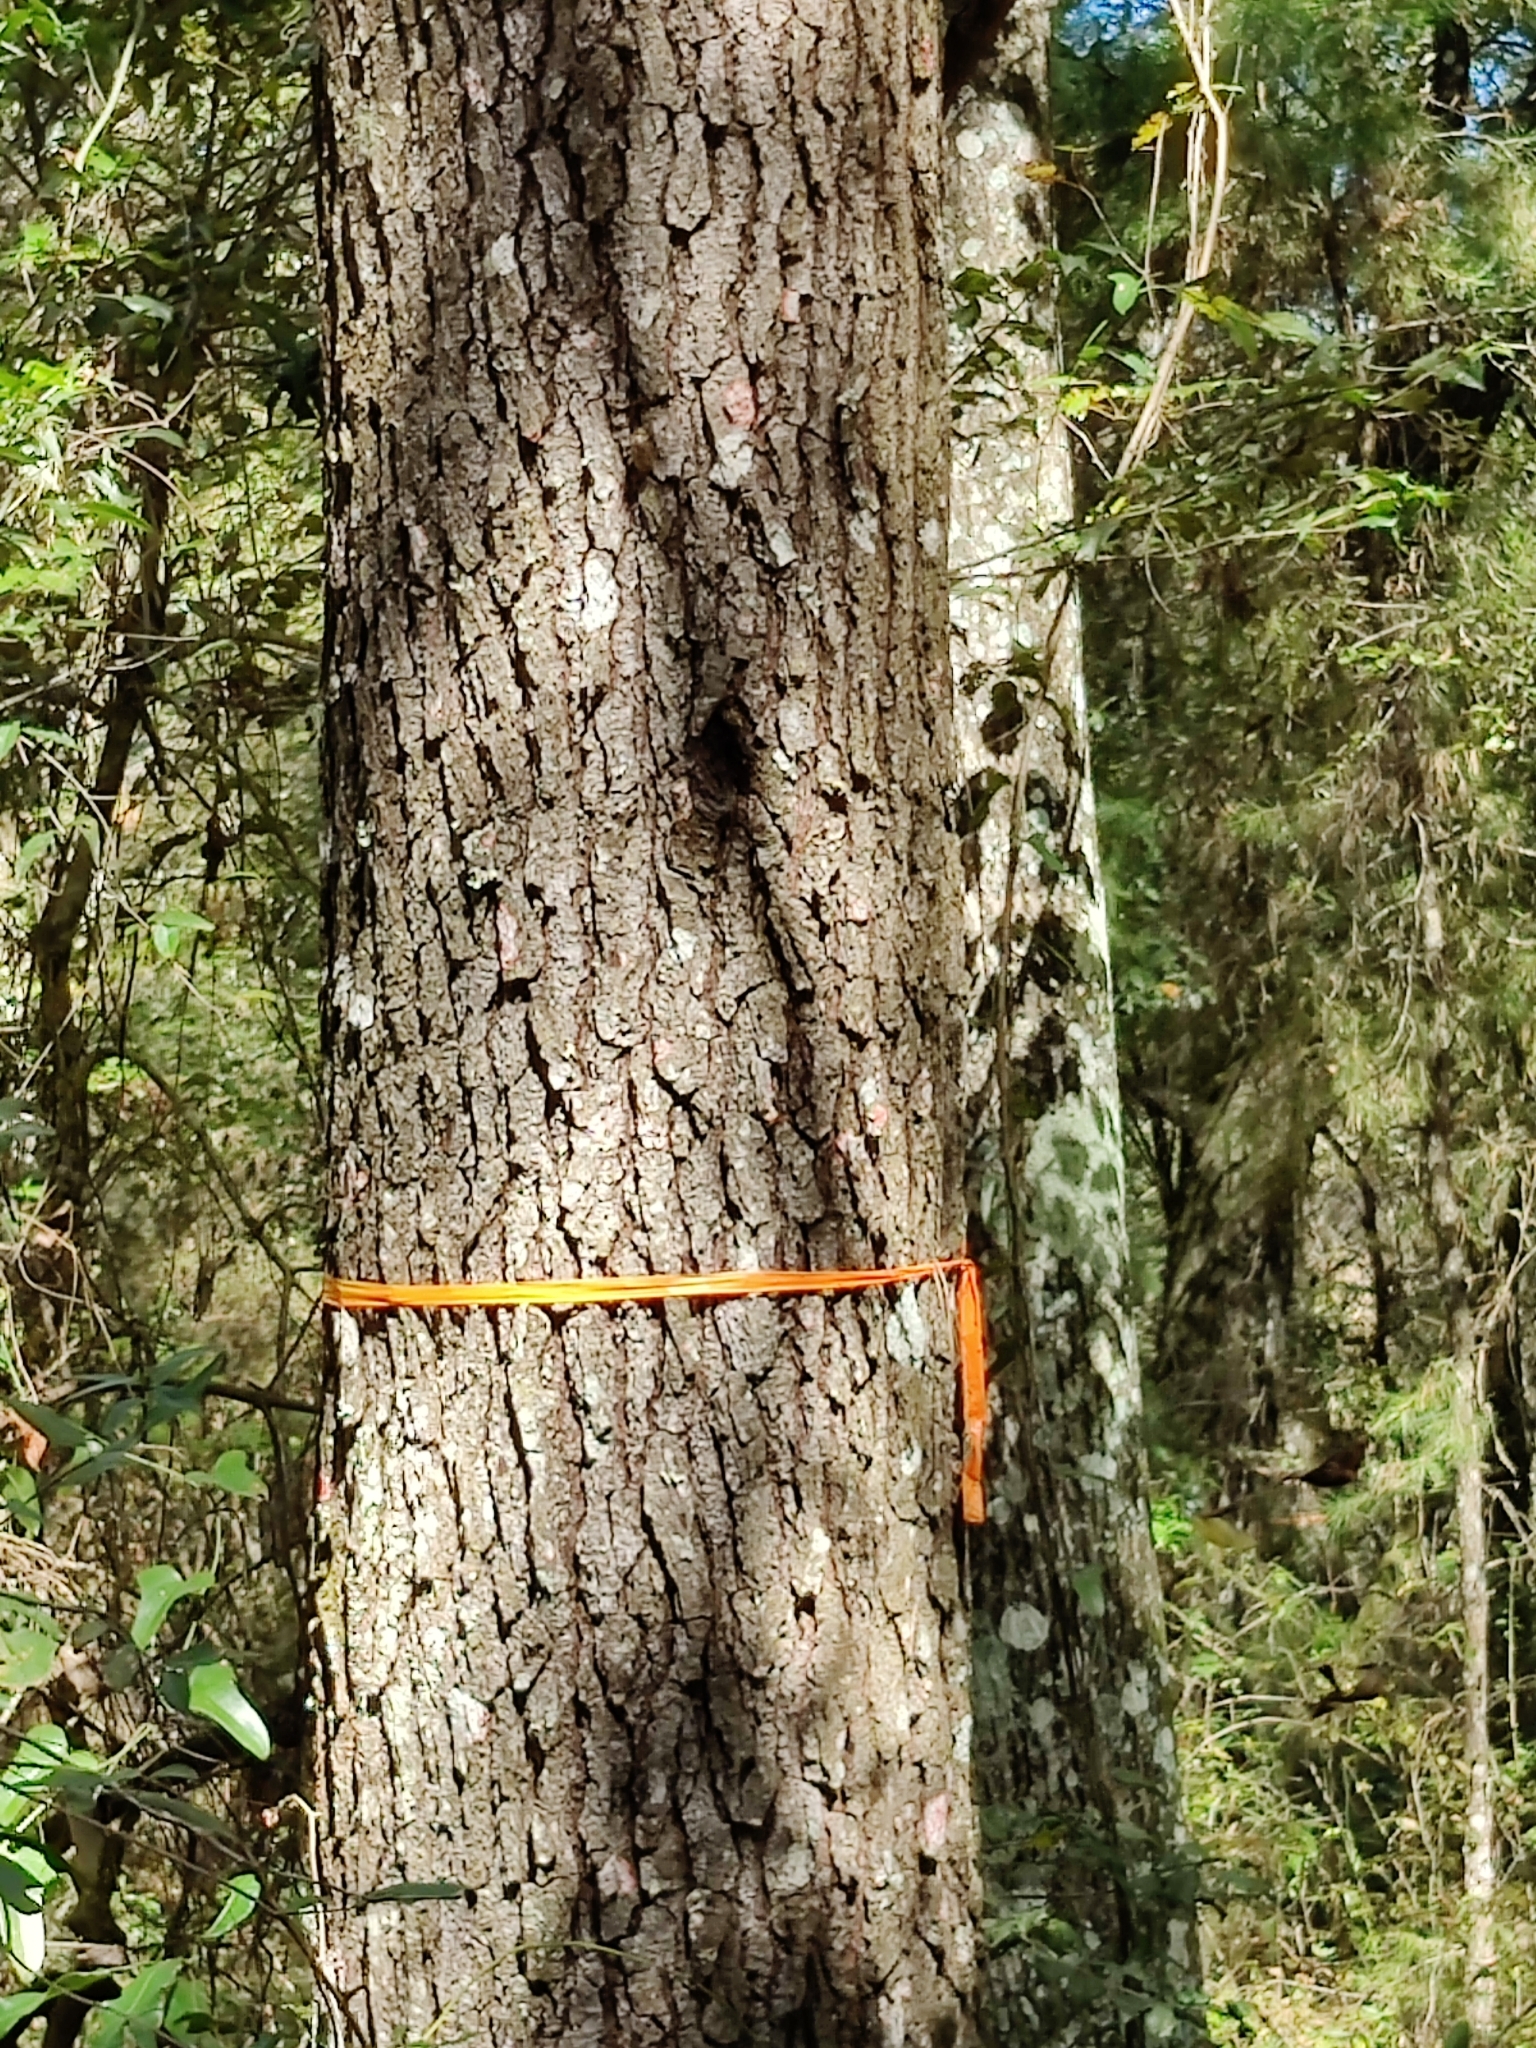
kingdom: Plantae
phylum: Tracheophyta
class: Pinopsida
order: Pinales
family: Pinaceae
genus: Pinus
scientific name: Pinus clausa
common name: Sand pine
